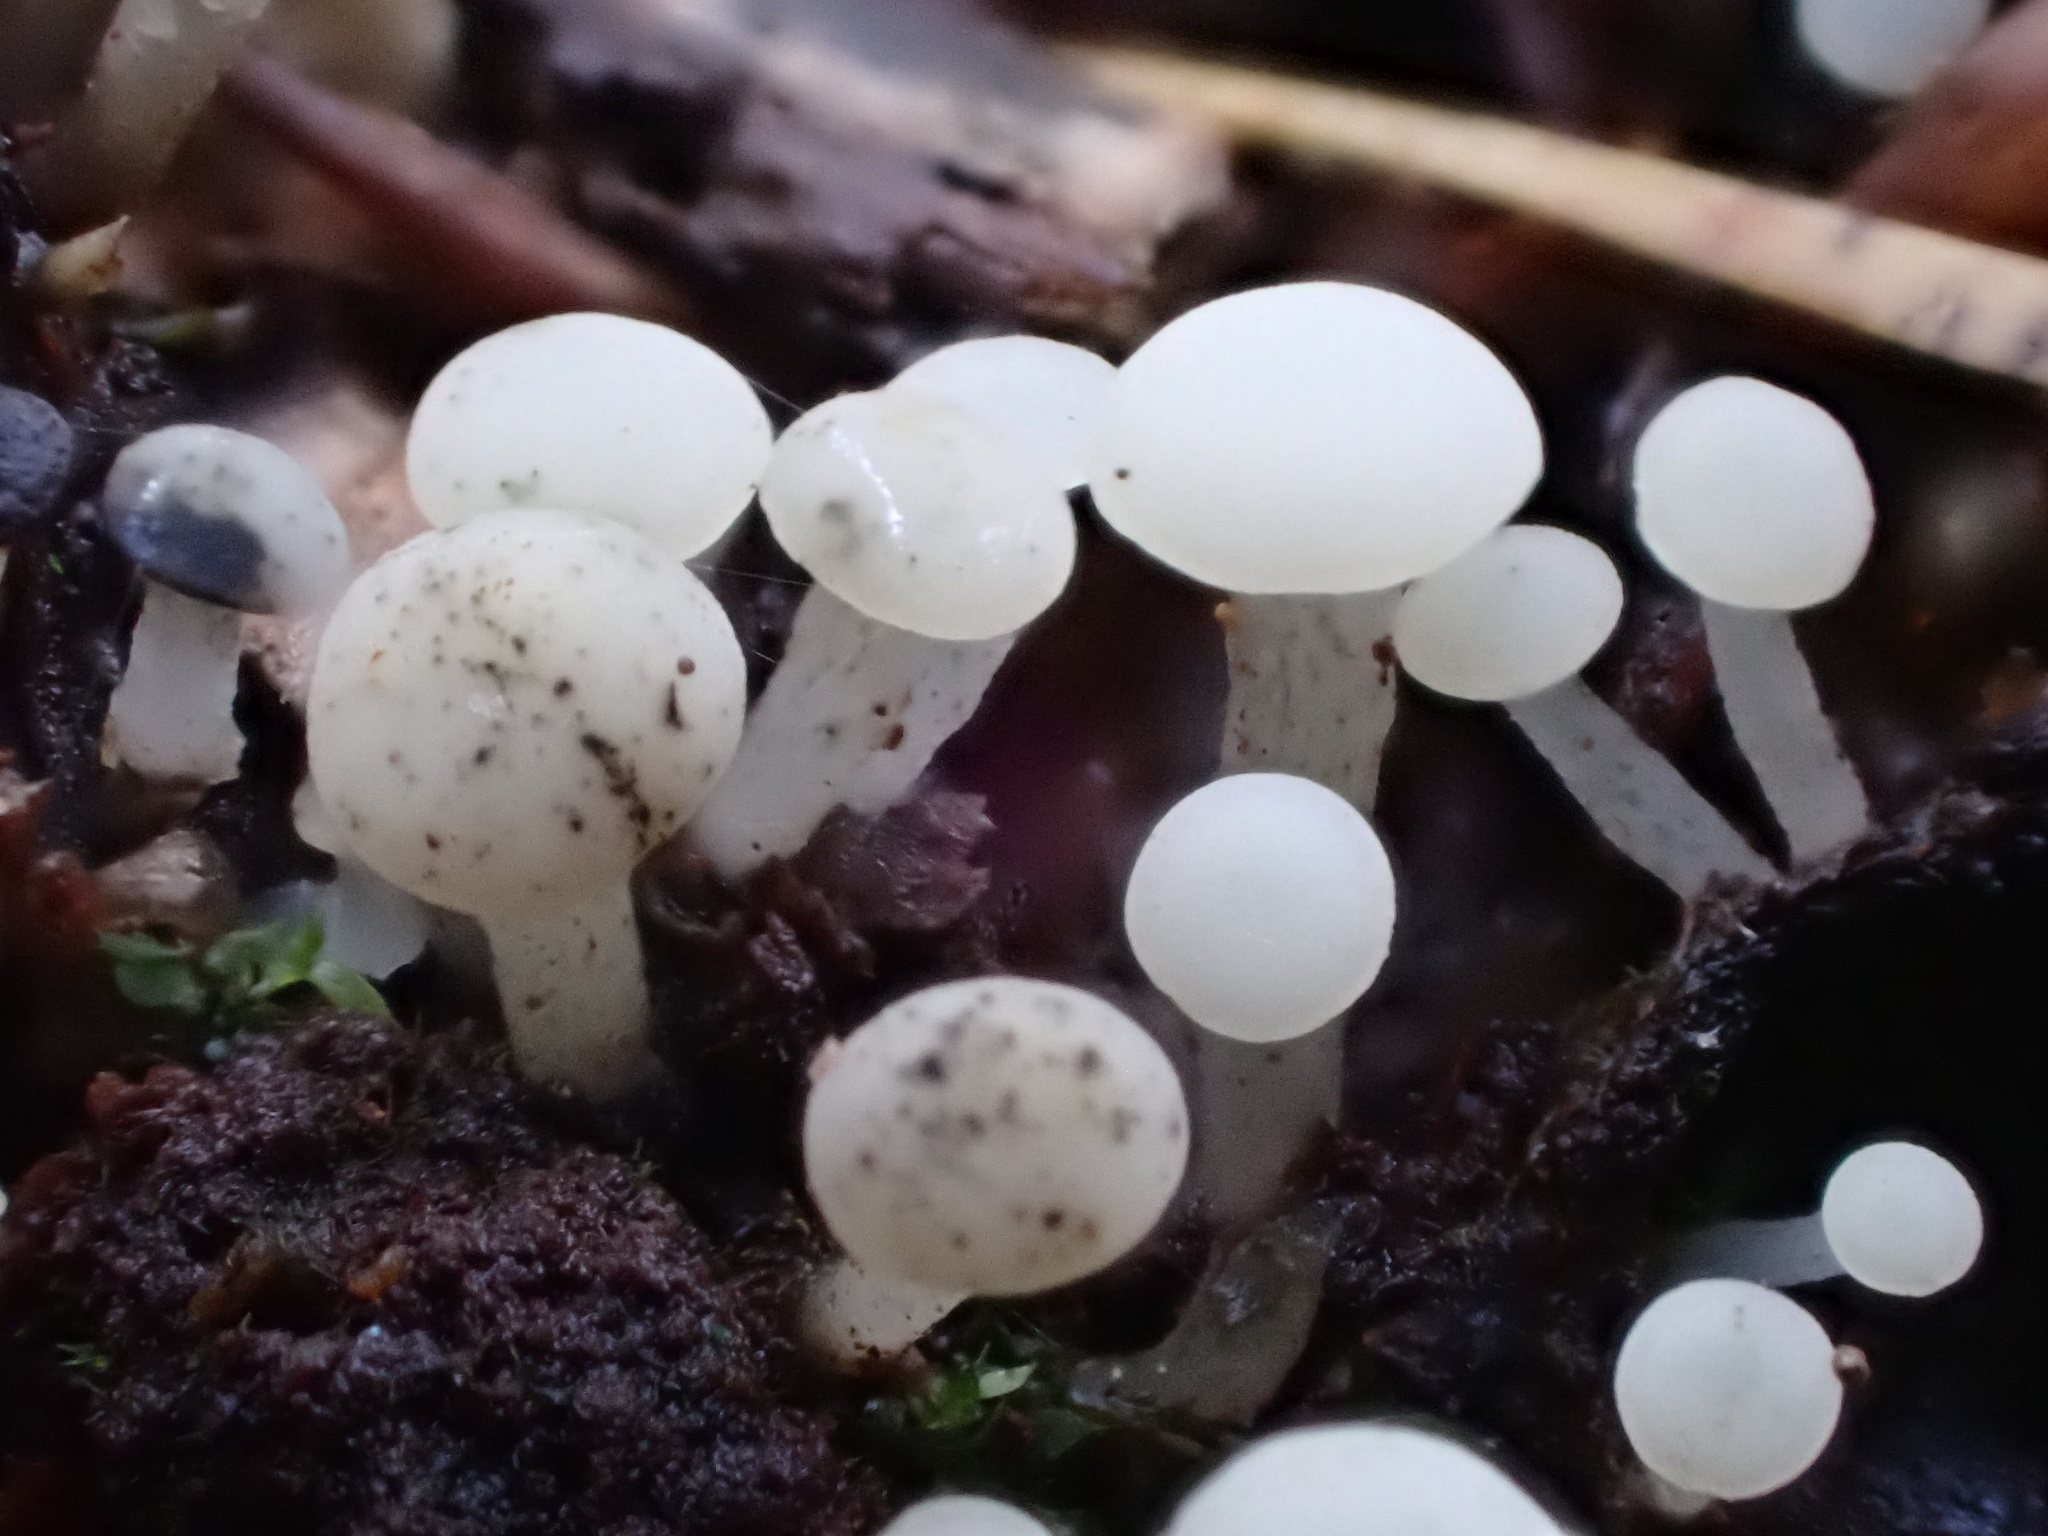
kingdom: Fungi
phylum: Ascomycota
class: Leotiomycetes
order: Helotiales
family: Tricladiaceae
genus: Cudoniella
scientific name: Cudoniella acicularis
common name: Oak pin
